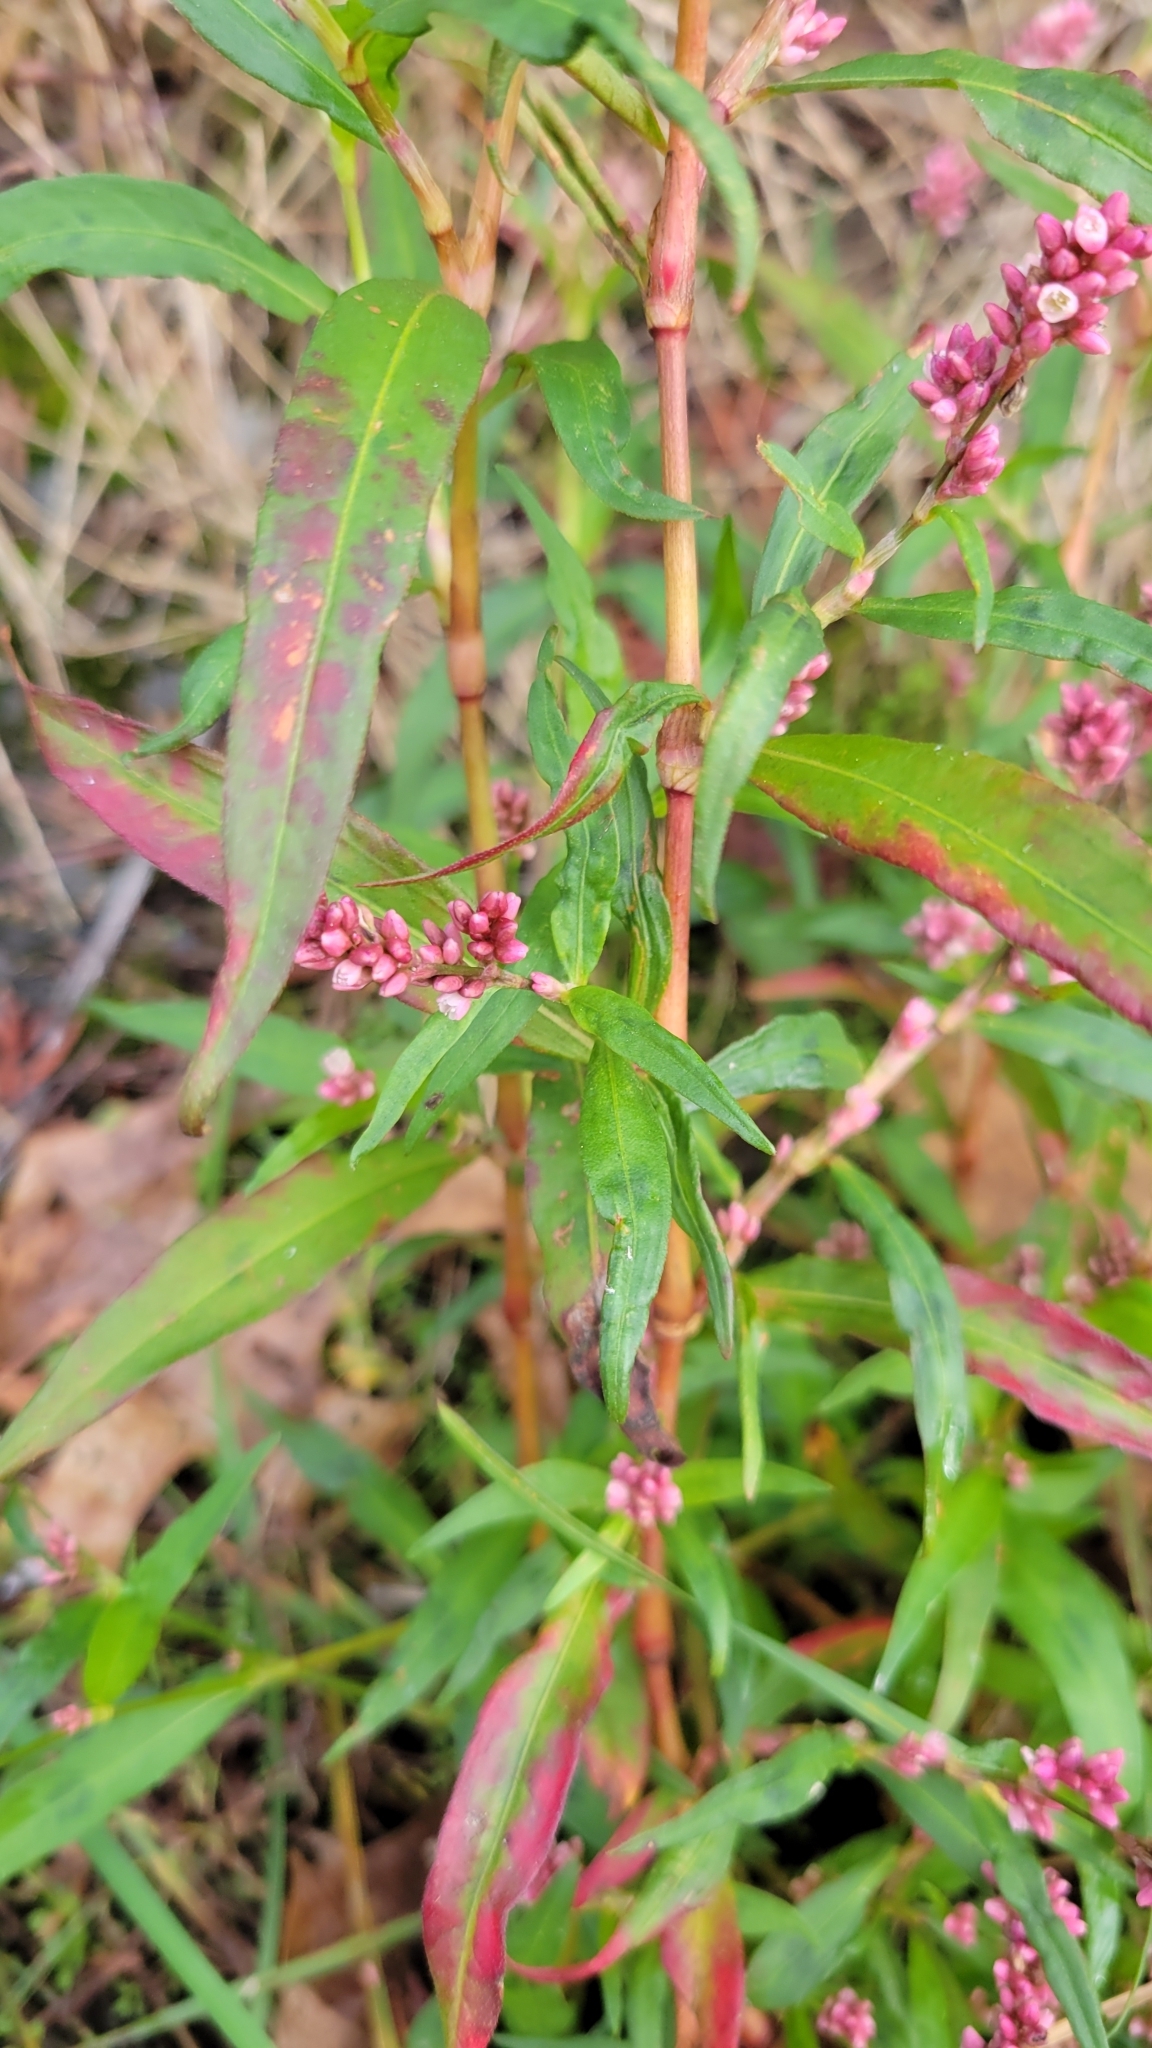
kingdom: Plantae
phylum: Tracheophyta
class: Magnoliopsida
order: Caryophyllales
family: Polygonaceae
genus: Persicaria
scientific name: Persicaria maculosa
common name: Redshank
